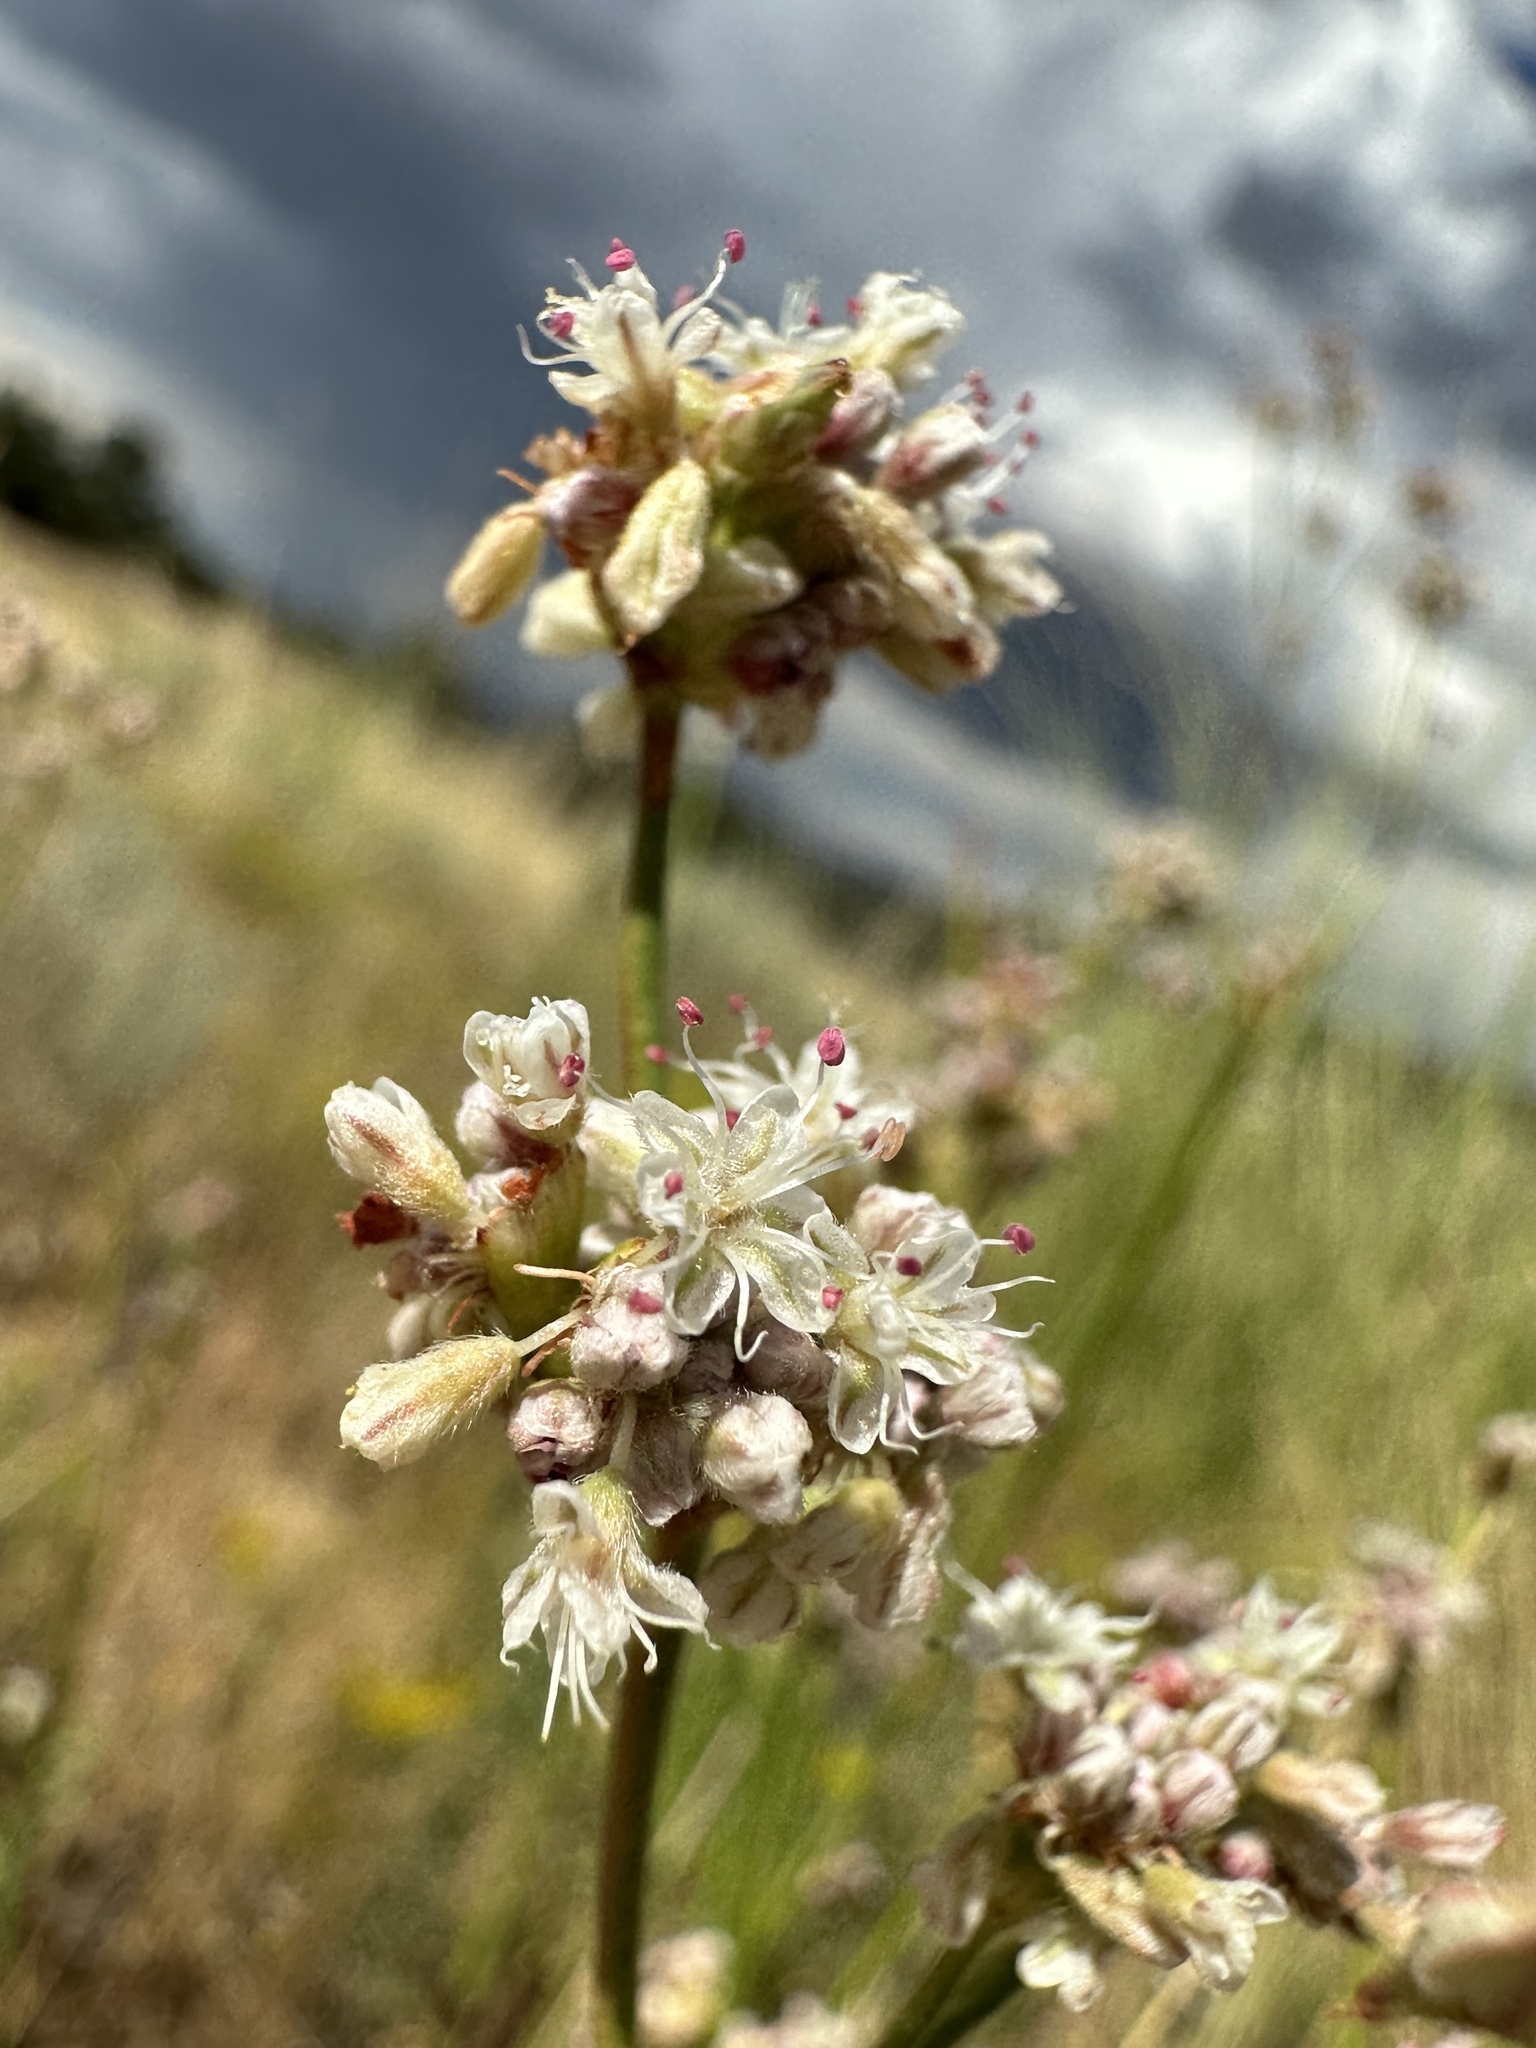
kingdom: Plantae
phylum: Tracheophyta
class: Magnoliopsida
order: Caryophyllales
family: Polygonaceae
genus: Eriogonum
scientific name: Eriogonum elatum
